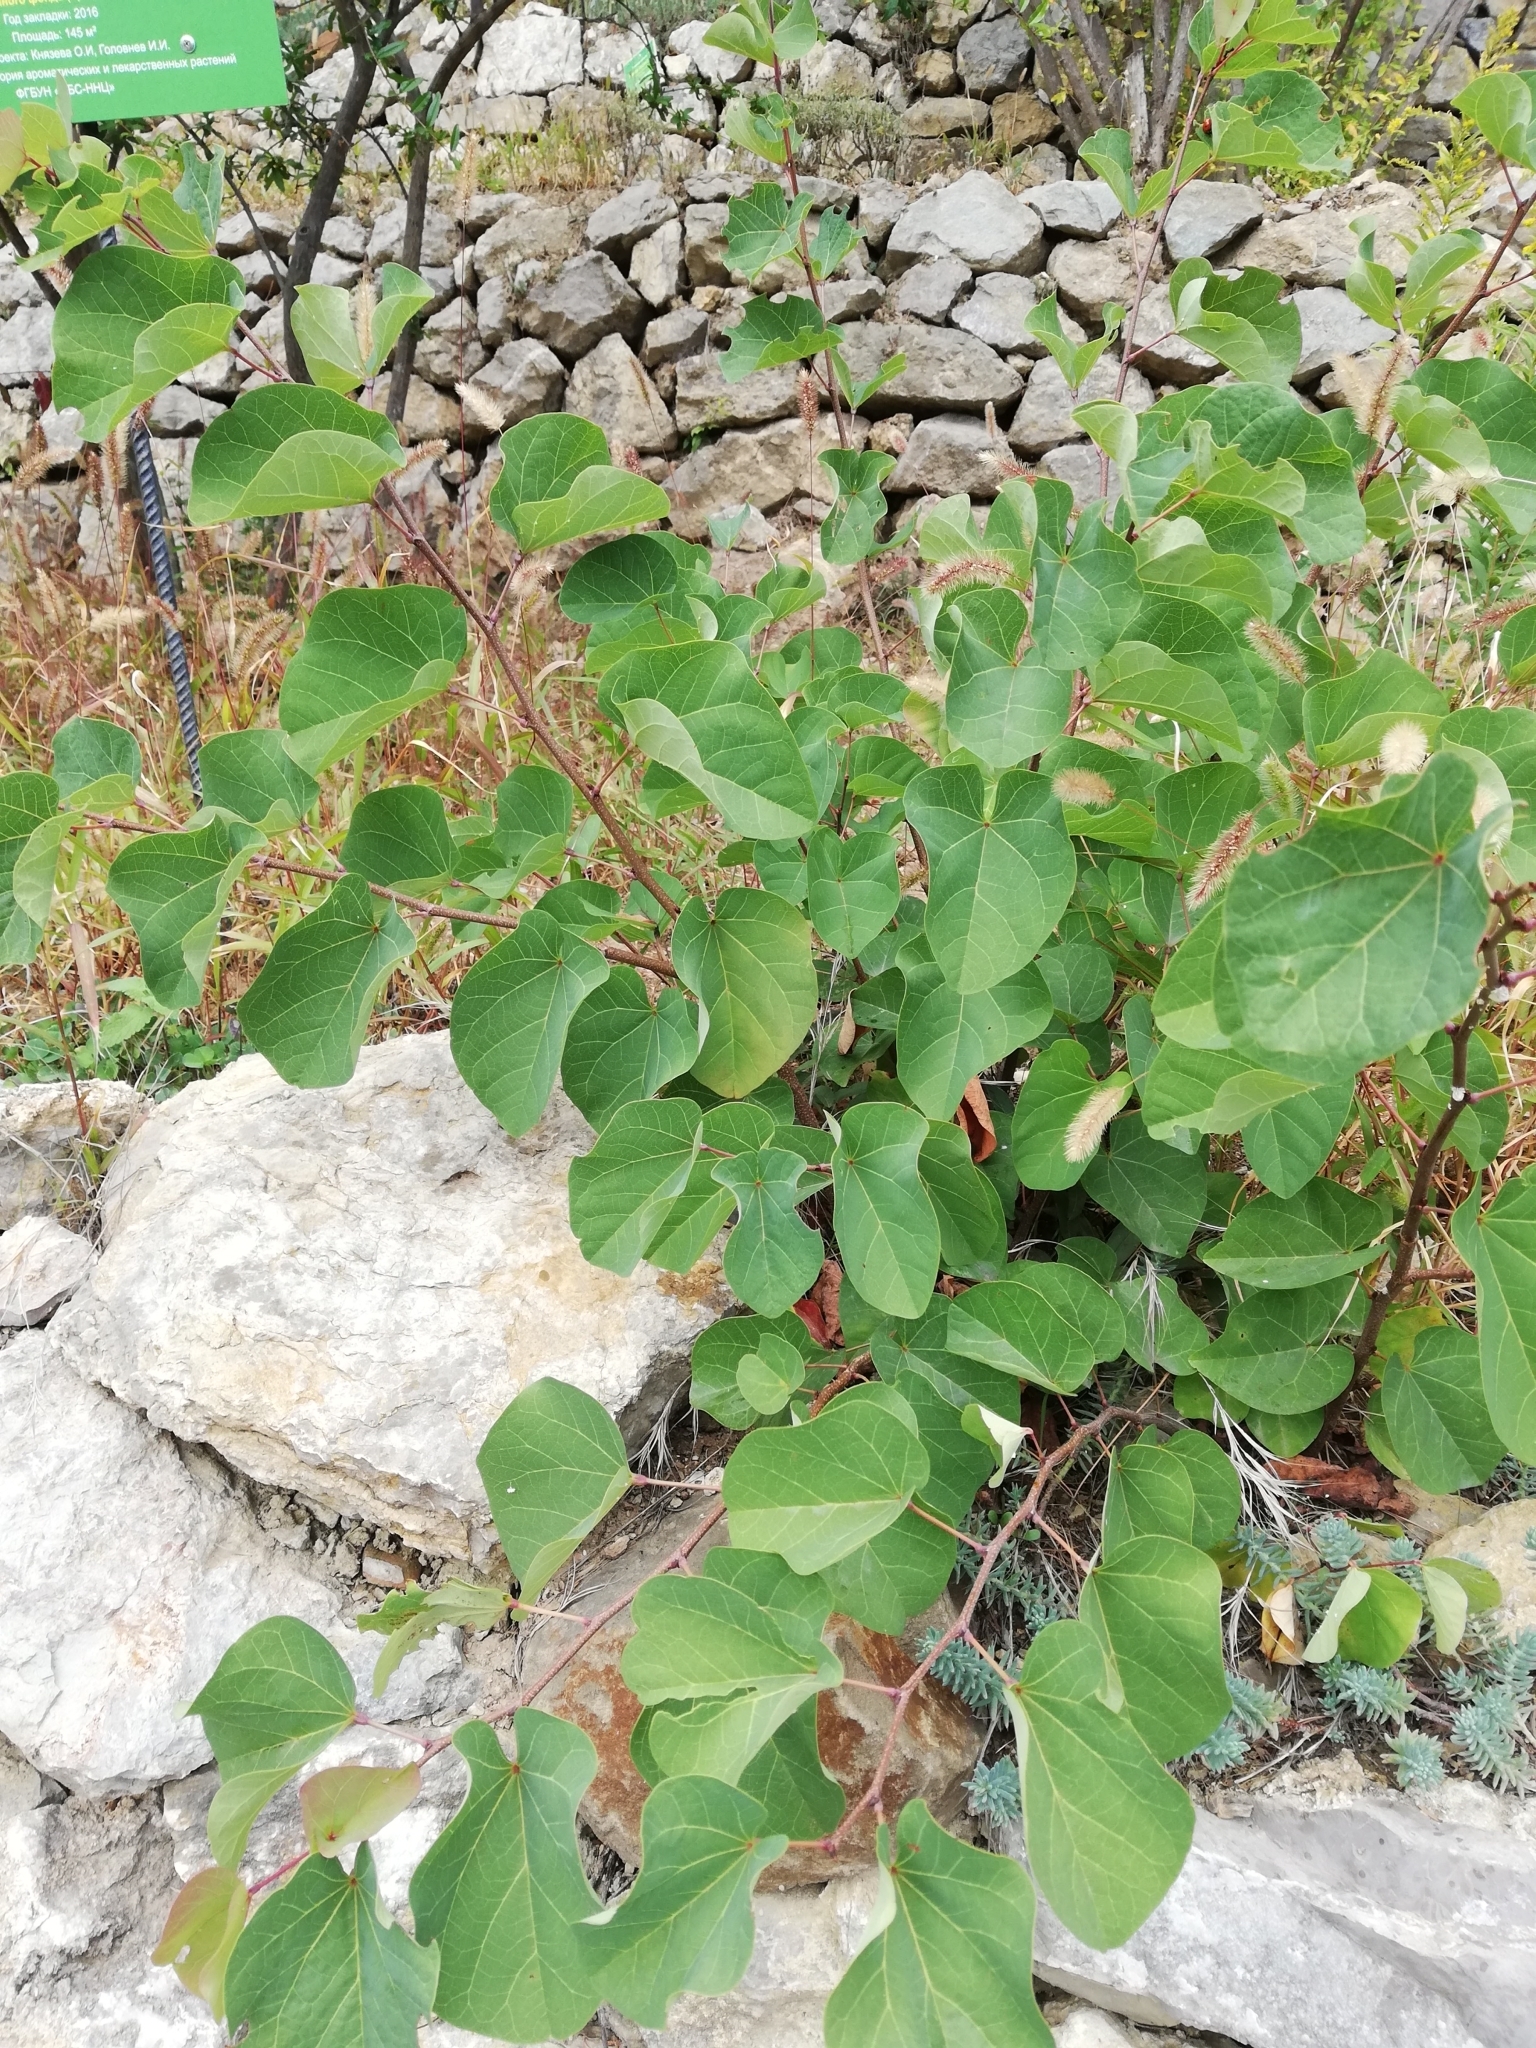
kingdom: Plantae
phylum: Tracheophyta
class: Magnoliopsida
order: Fabales
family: Fabaceae
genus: Cercis
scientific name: Cercis siliquastrum
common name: Judas tree
